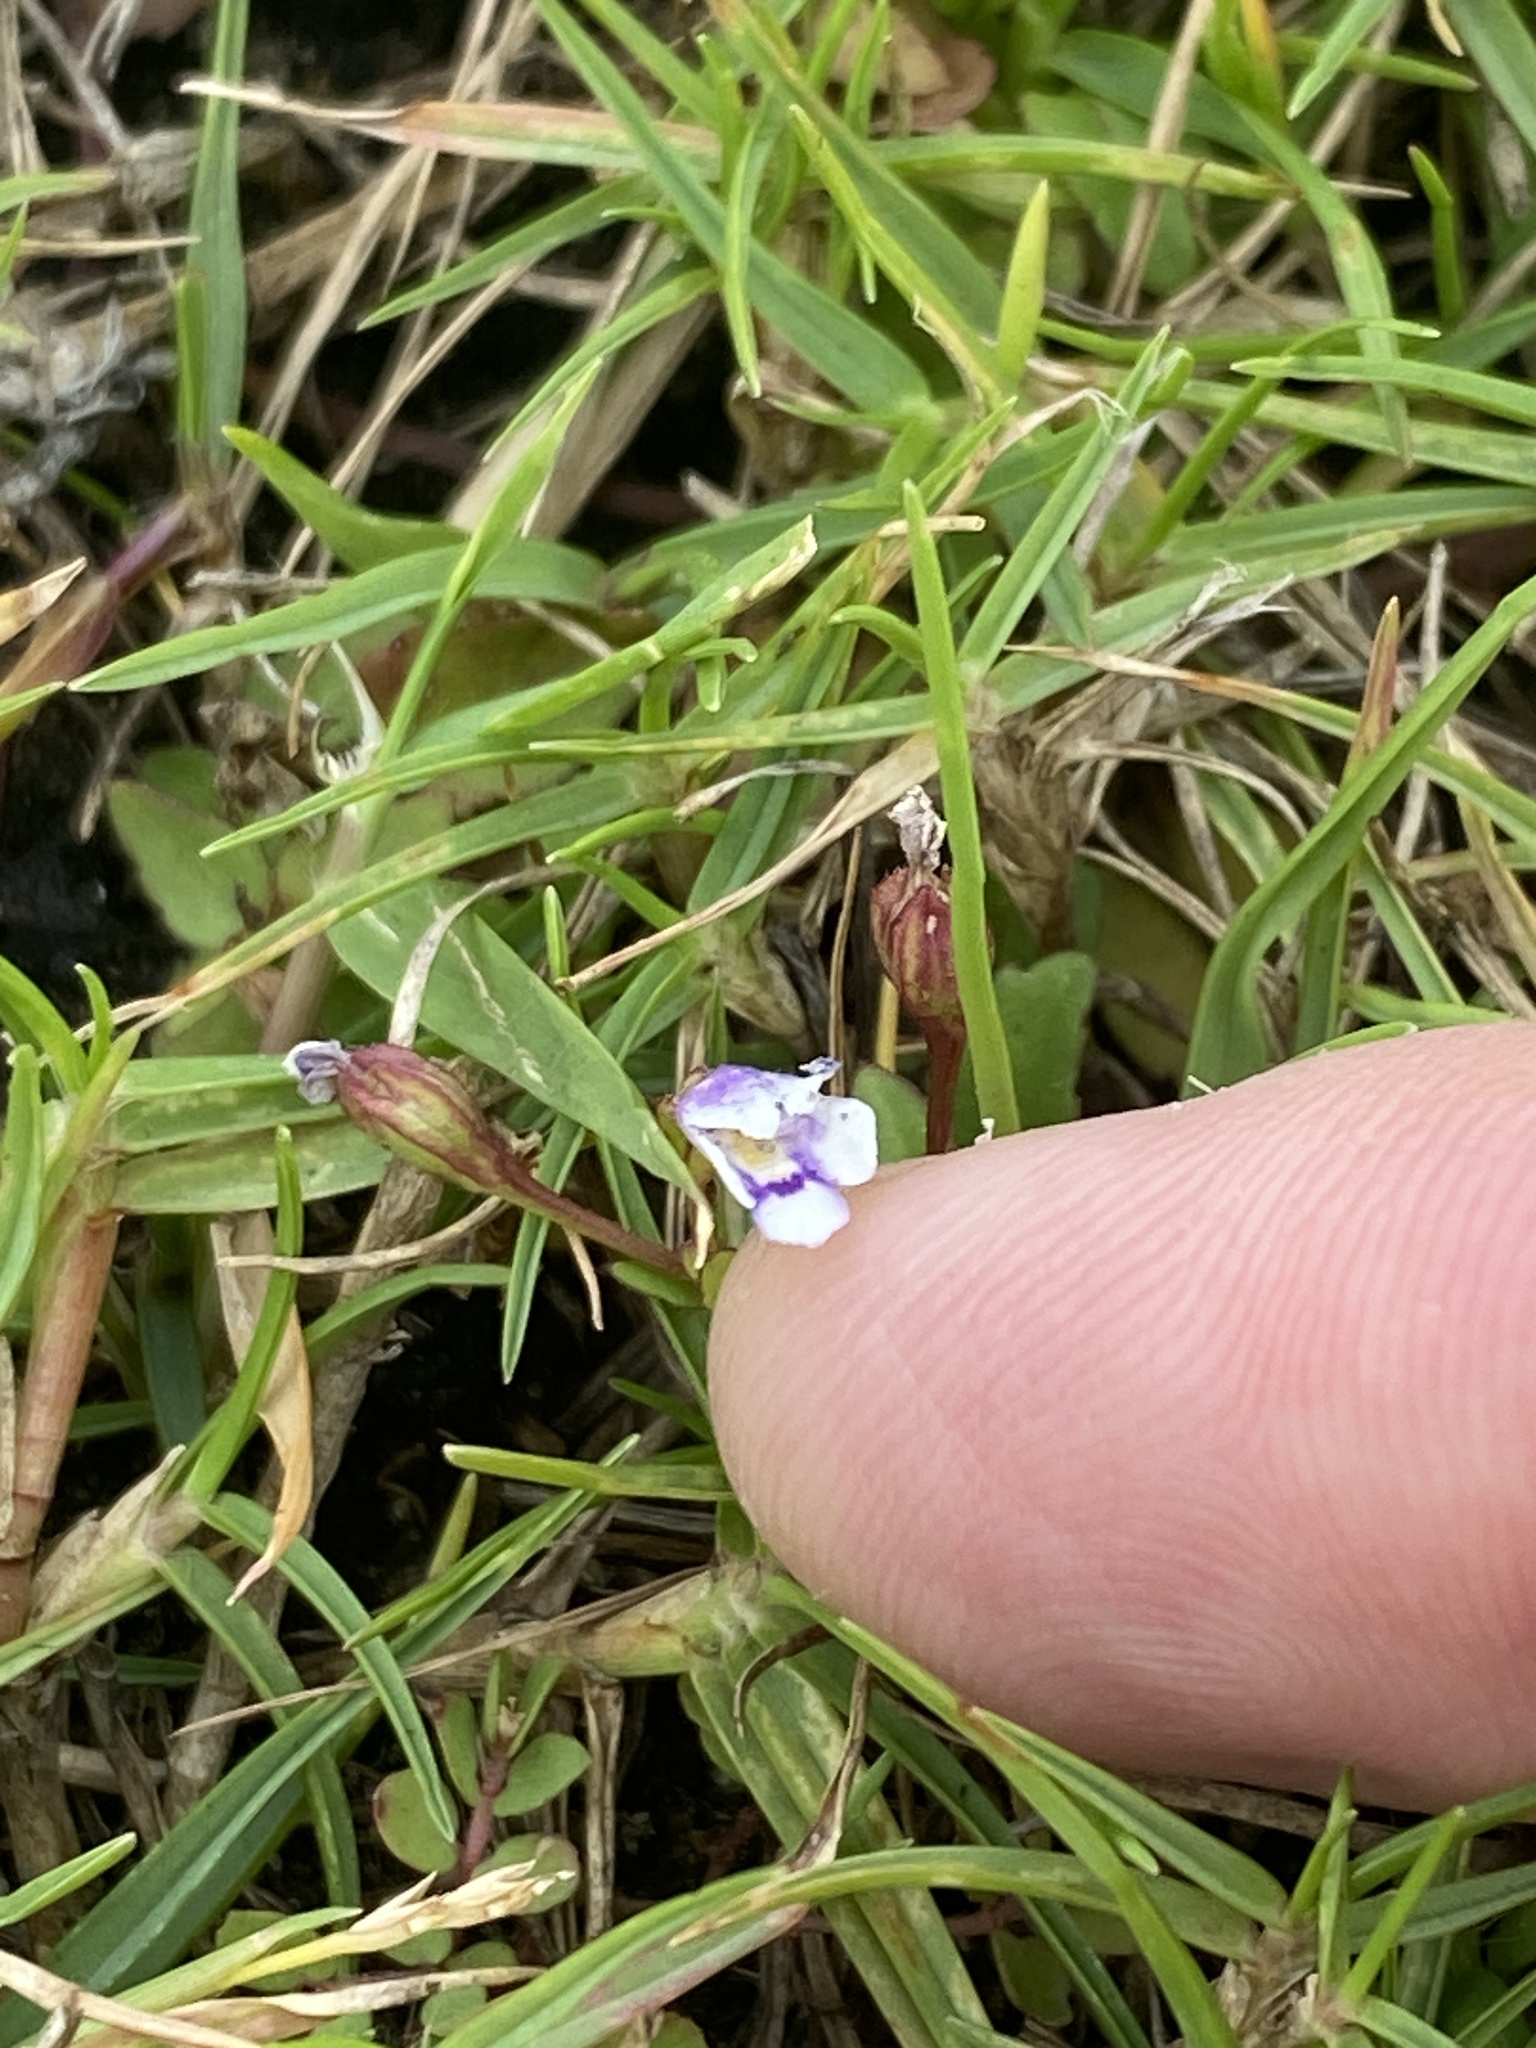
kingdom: Plantae
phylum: Tracheophyta
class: Magnoliopsida
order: Lamiales
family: Linderniaceae
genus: Torenia
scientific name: Torenia crustacea
